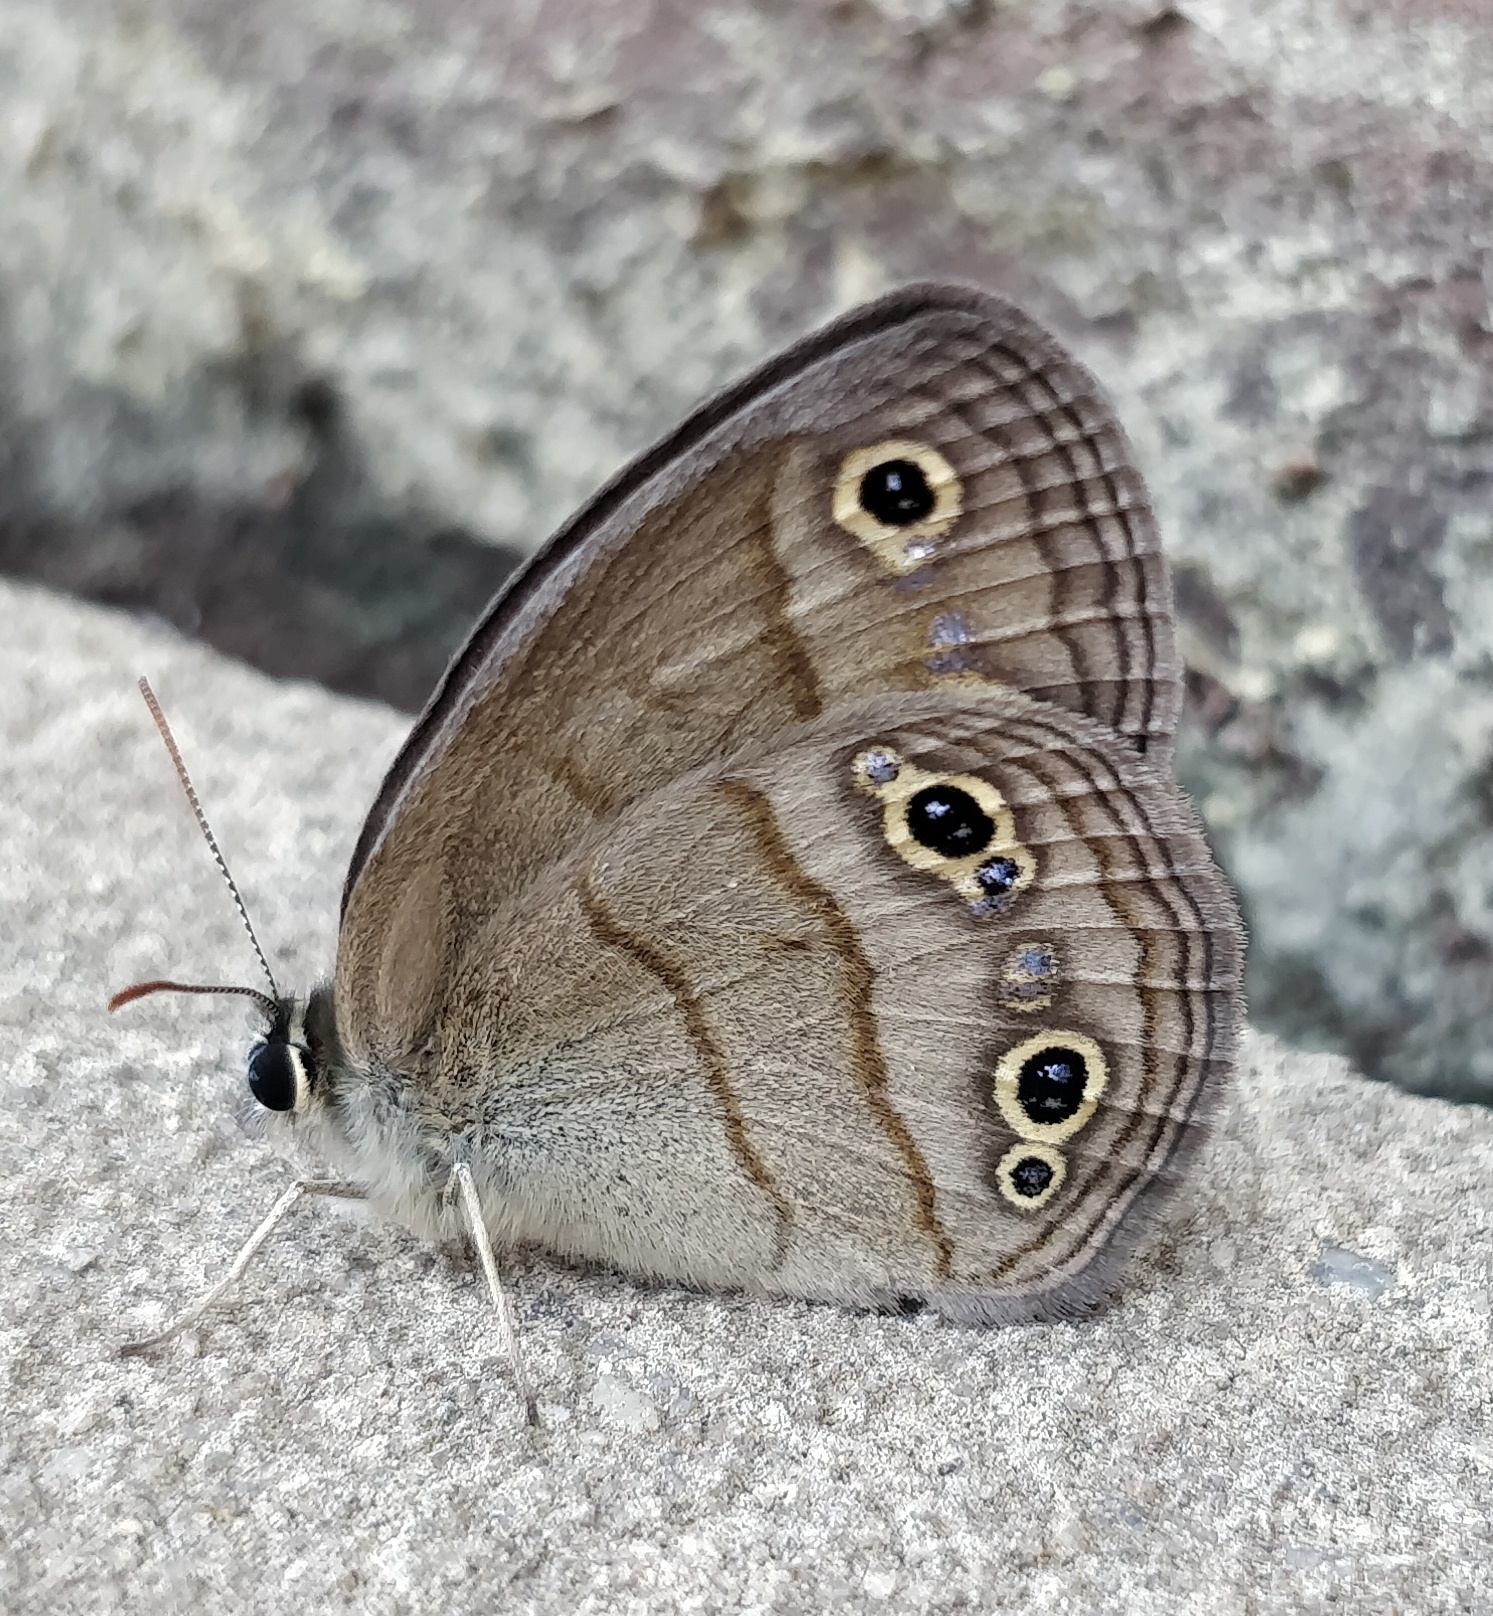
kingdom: Animalia
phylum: Arthropoda
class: Insecta
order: Lepidoptera
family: Nymphalidae
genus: Euptychia
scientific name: Euptychia cymela
